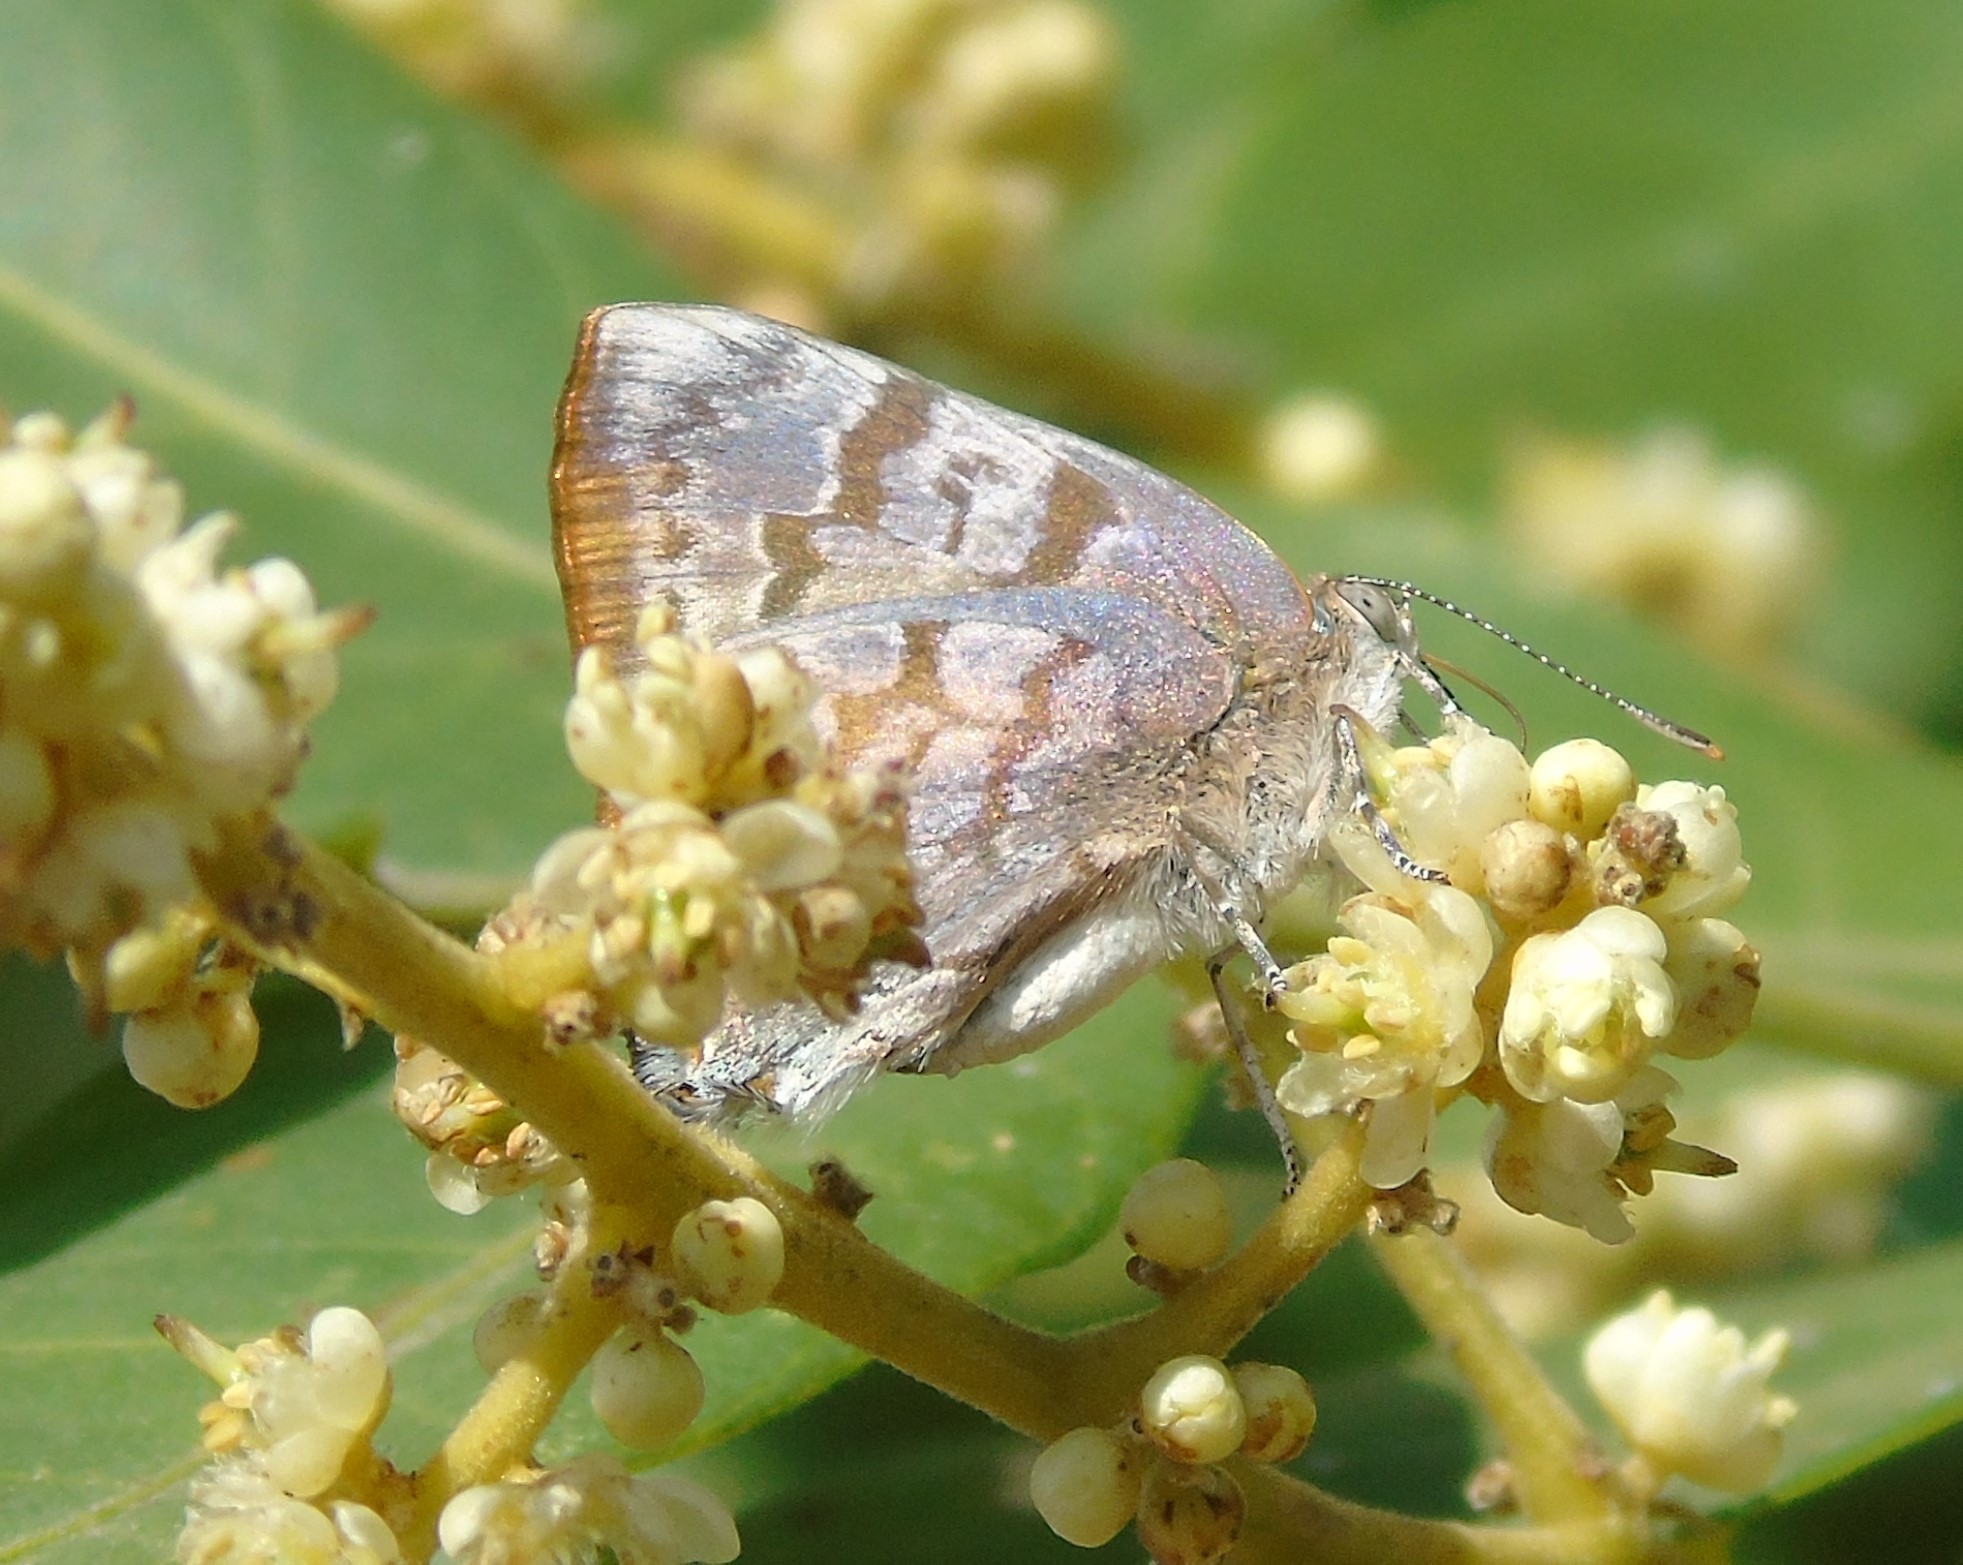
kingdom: Animalia
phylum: Arthropoda
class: Insecta
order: Lepidoptera
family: Lycaenidae
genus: Rekoa
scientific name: Rekoa palegon
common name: Gold-bordered hairstreak
